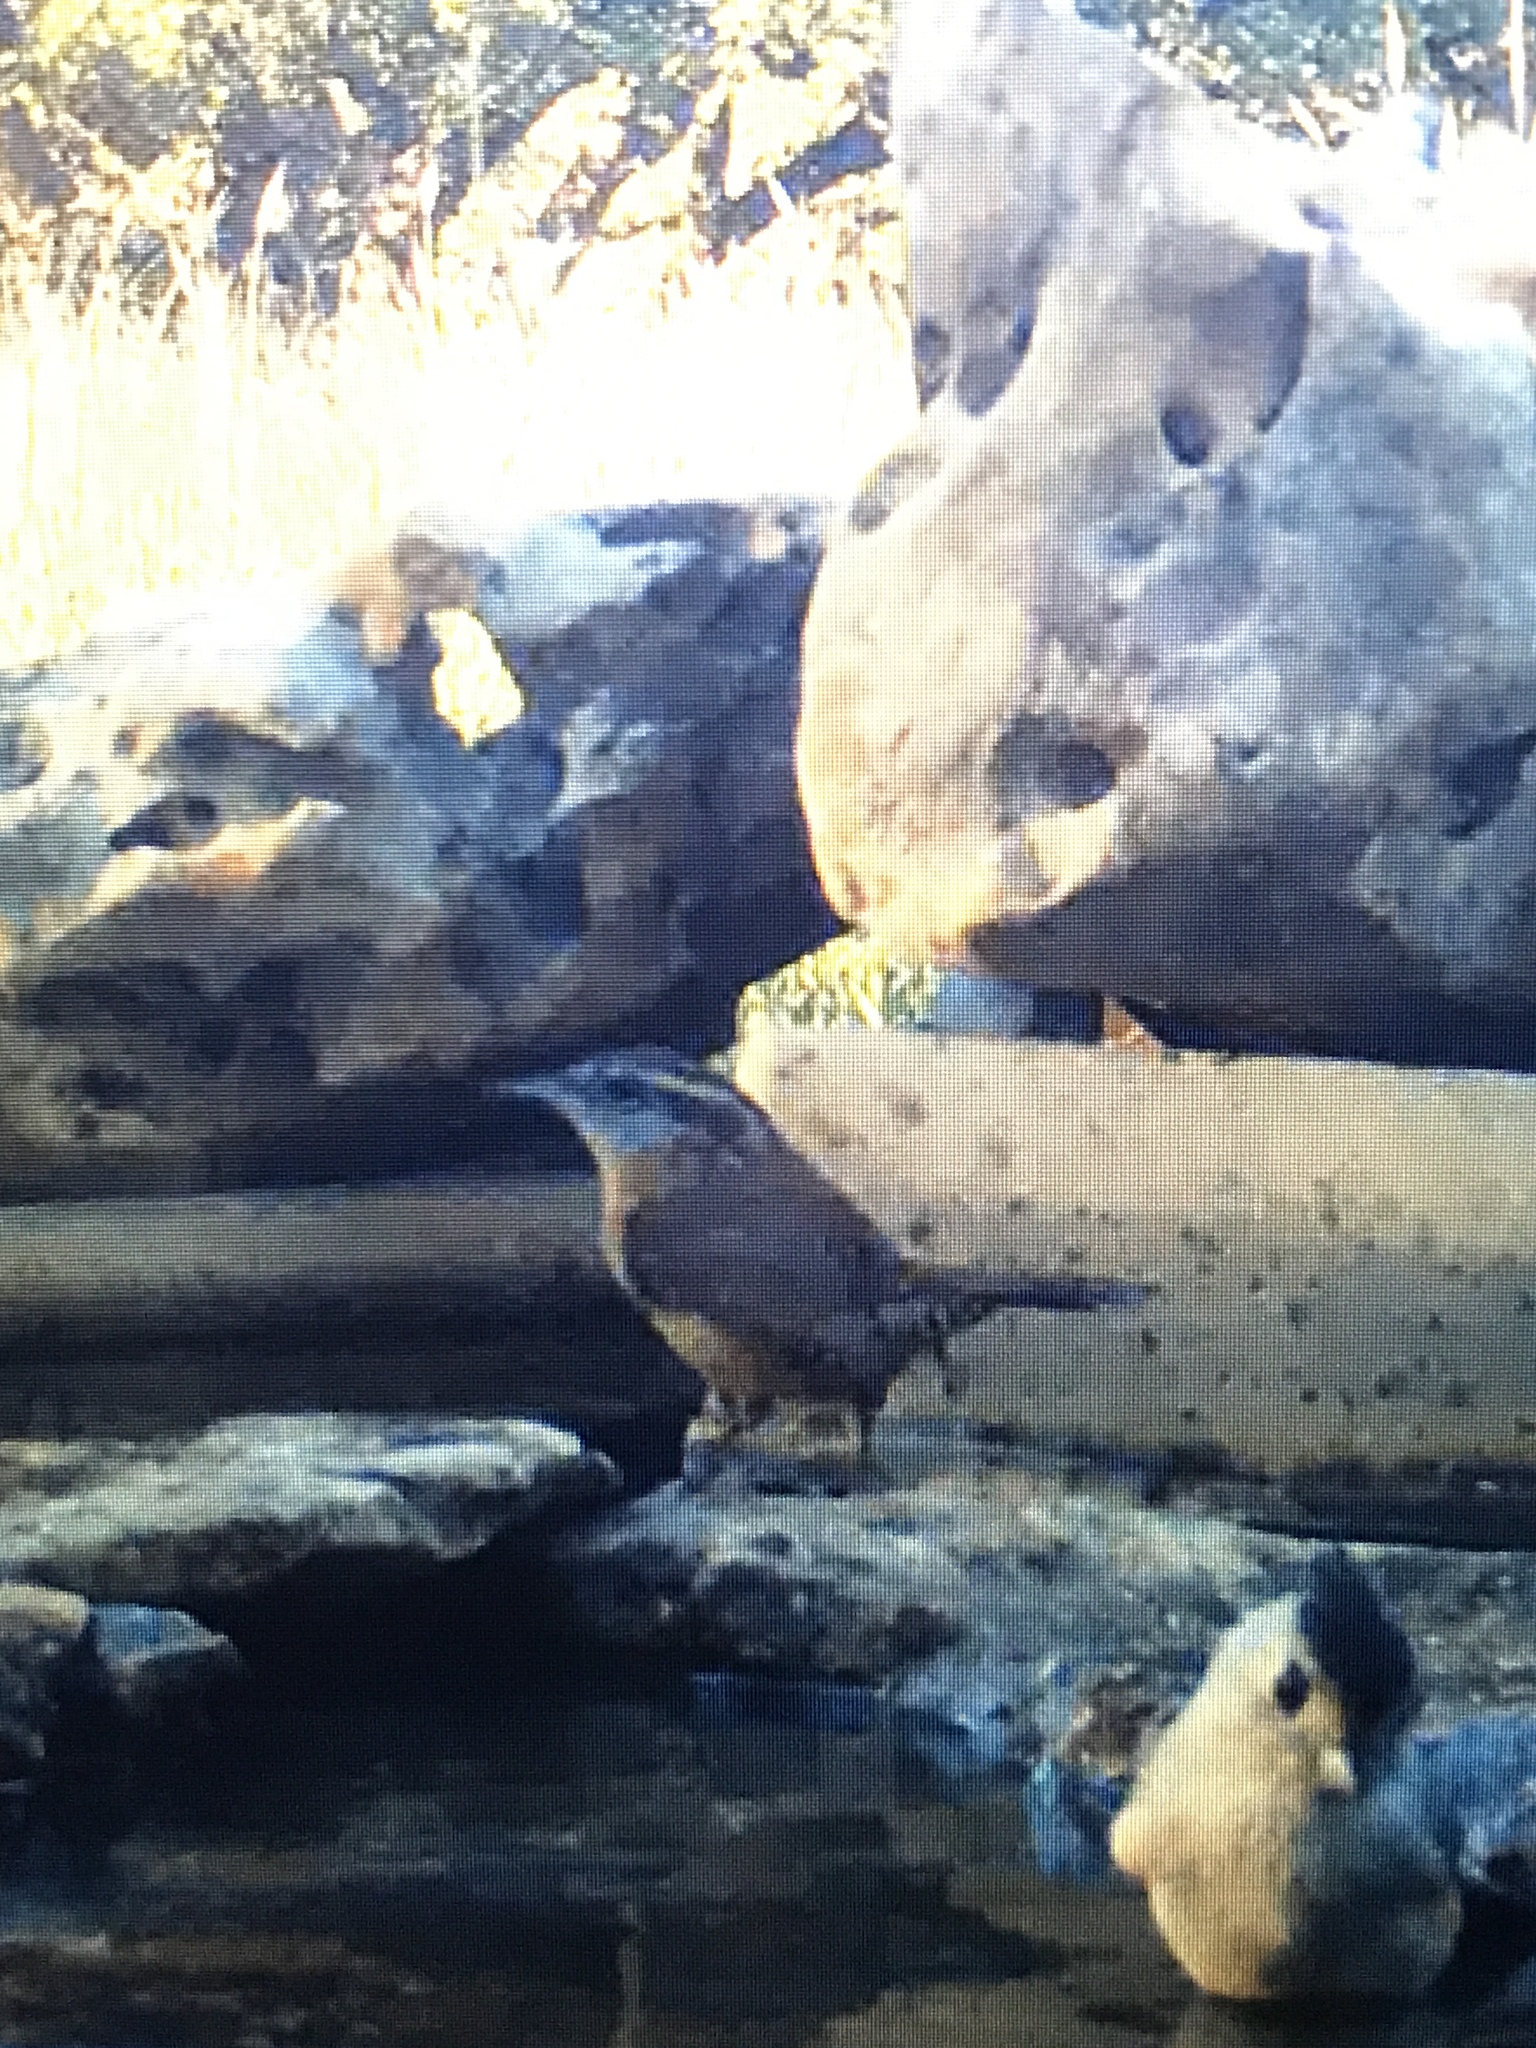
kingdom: Animalia
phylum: Chordata
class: Aves
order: Passeriformes
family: Troglodytidae
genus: Thryothorus
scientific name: Thryothorus ludovicianus
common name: Carolina wren
